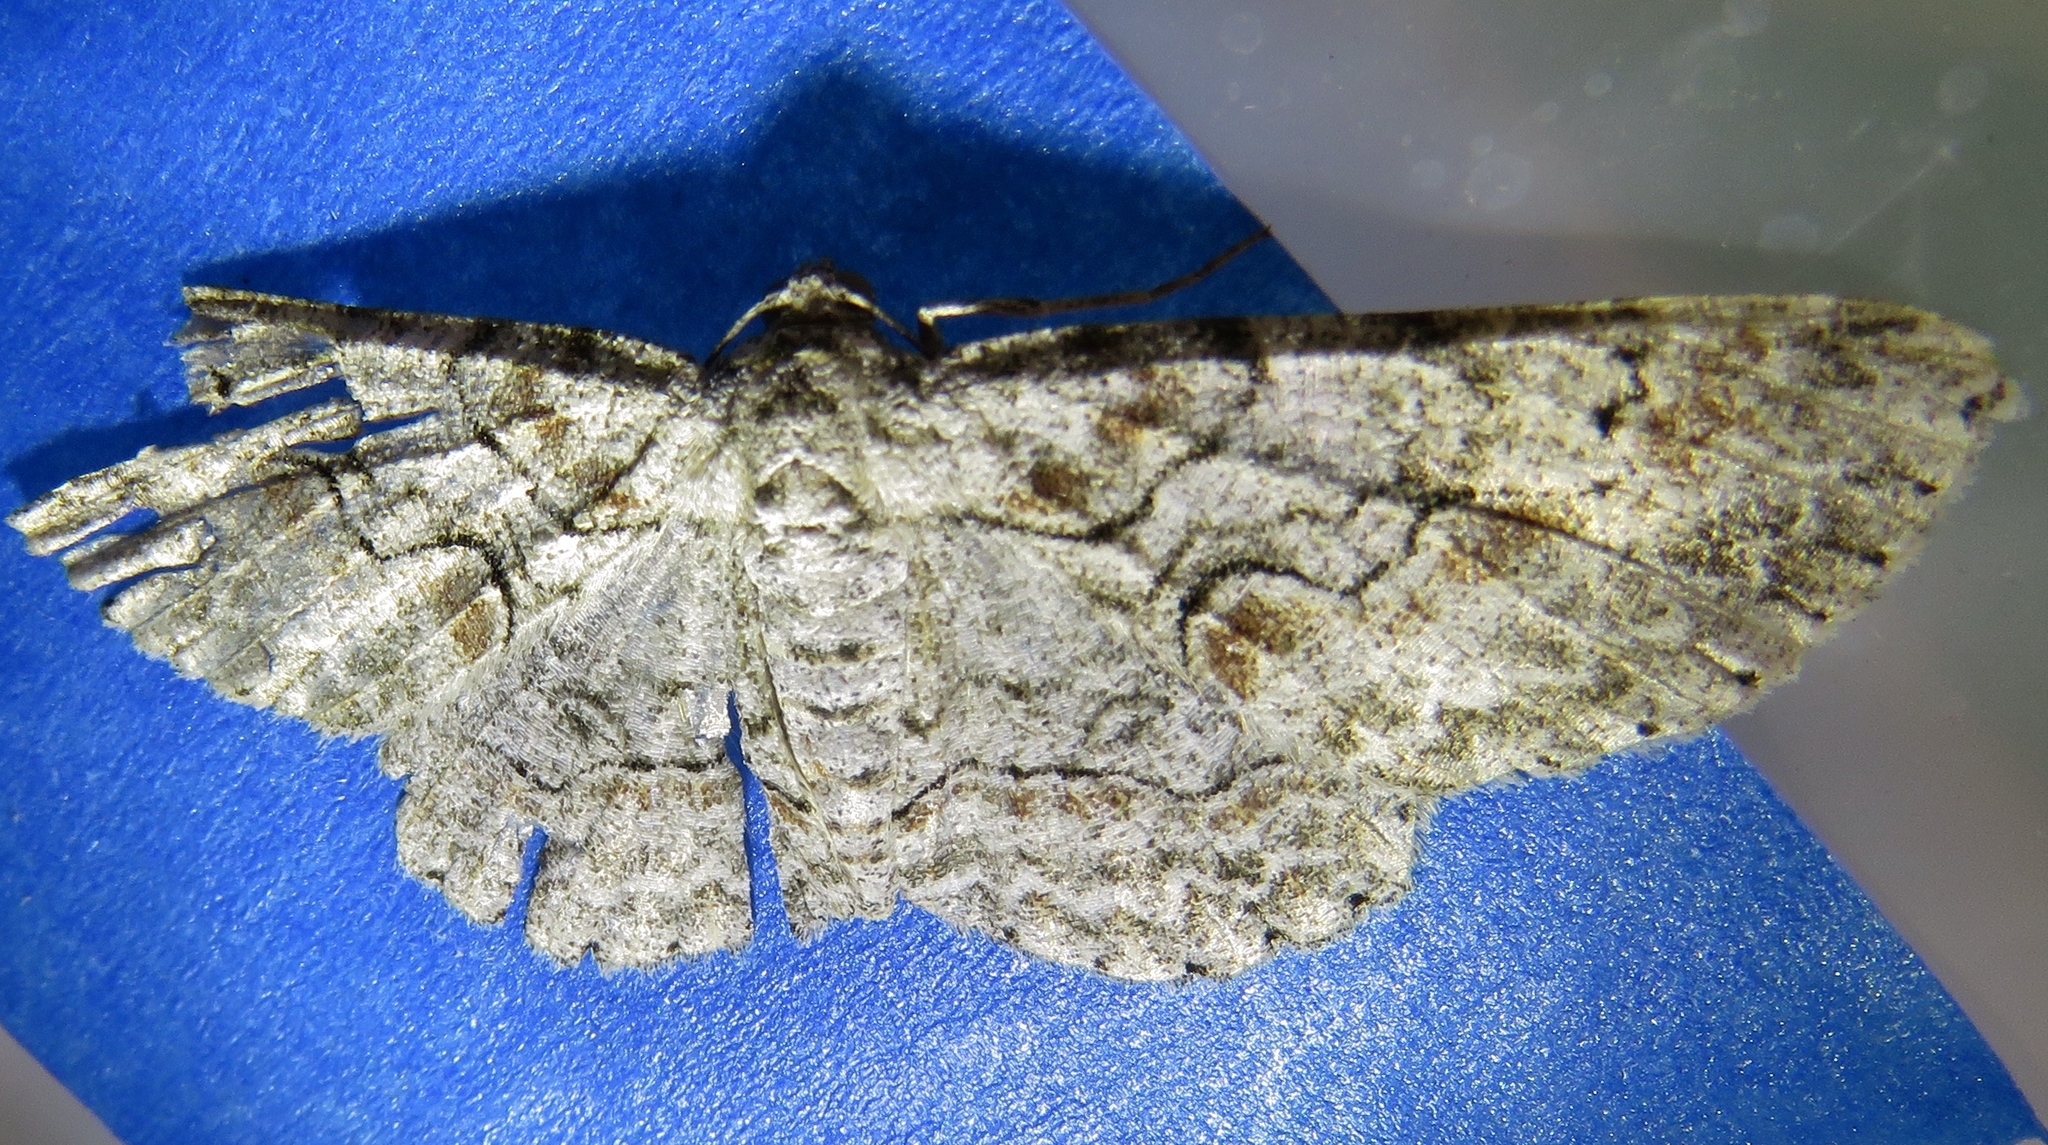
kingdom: Animalia
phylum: Arthropoda
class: Insecta
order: Lepidoptera
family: Geometridae
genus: Iridopsis
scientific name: Iridopsis defectaria
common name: Brown-shaded gray
